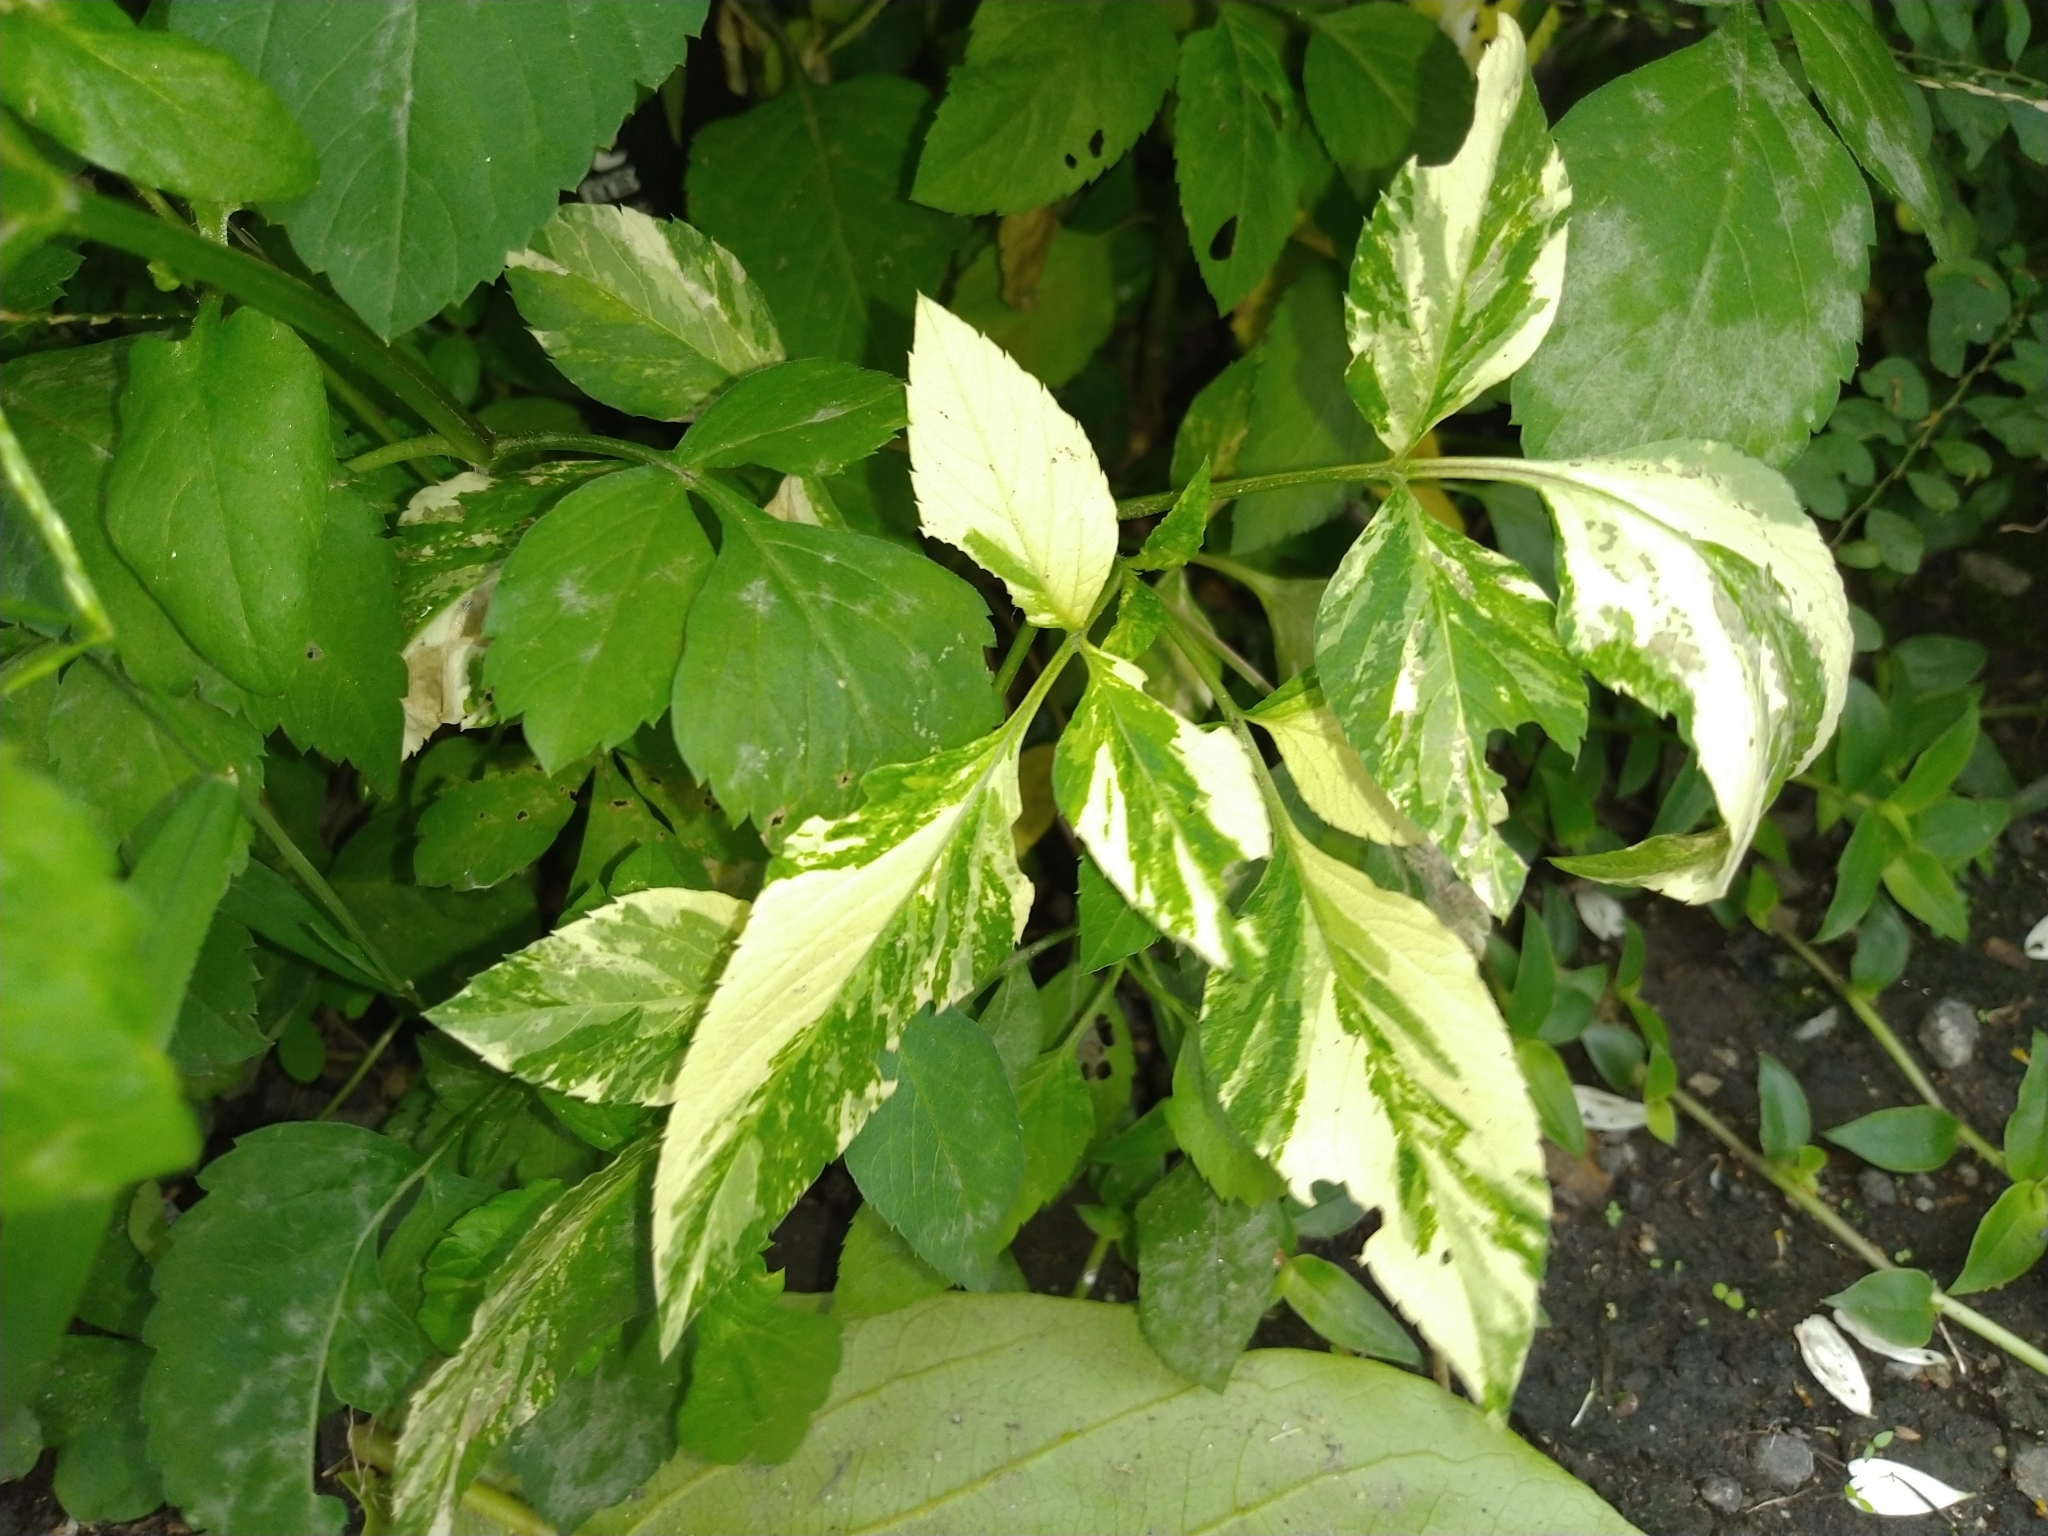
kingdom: Plantae
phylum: Tracheophyta
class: Magnoliopsida
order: Asterales
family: Asteraceae
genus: Bidens
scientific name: Bidens alba
